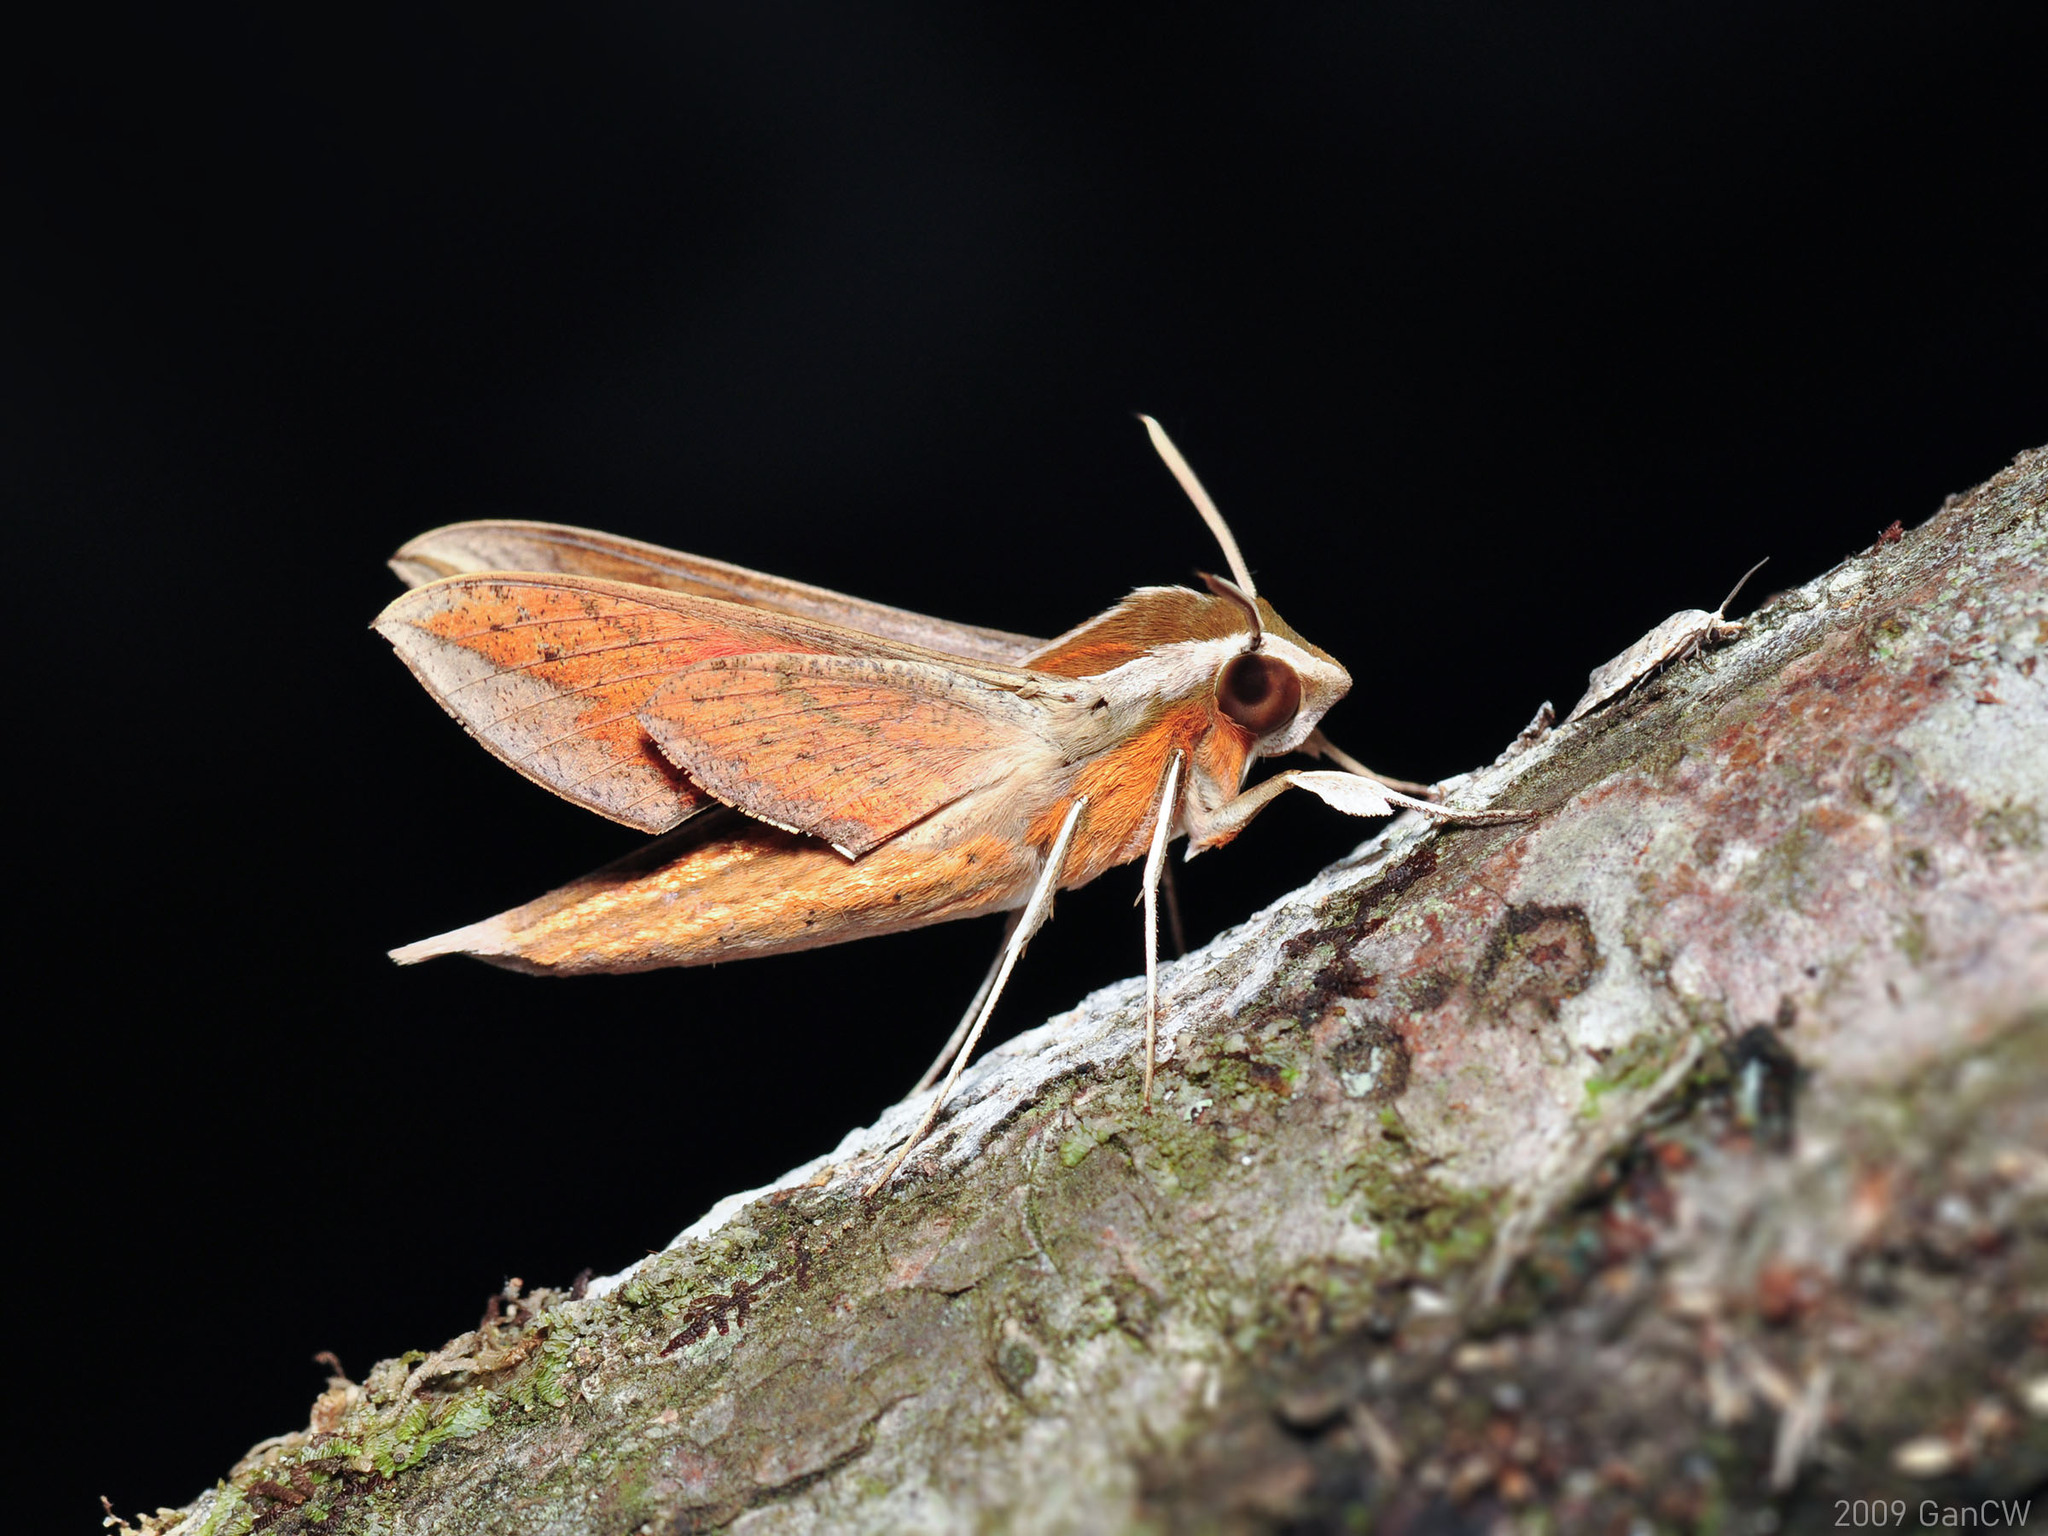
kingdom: Animalia
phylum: Arthropoda
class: Insecta
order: Lepidoptera
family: Sphingidae
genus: Hippotion
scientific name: Hippotion echeclus
